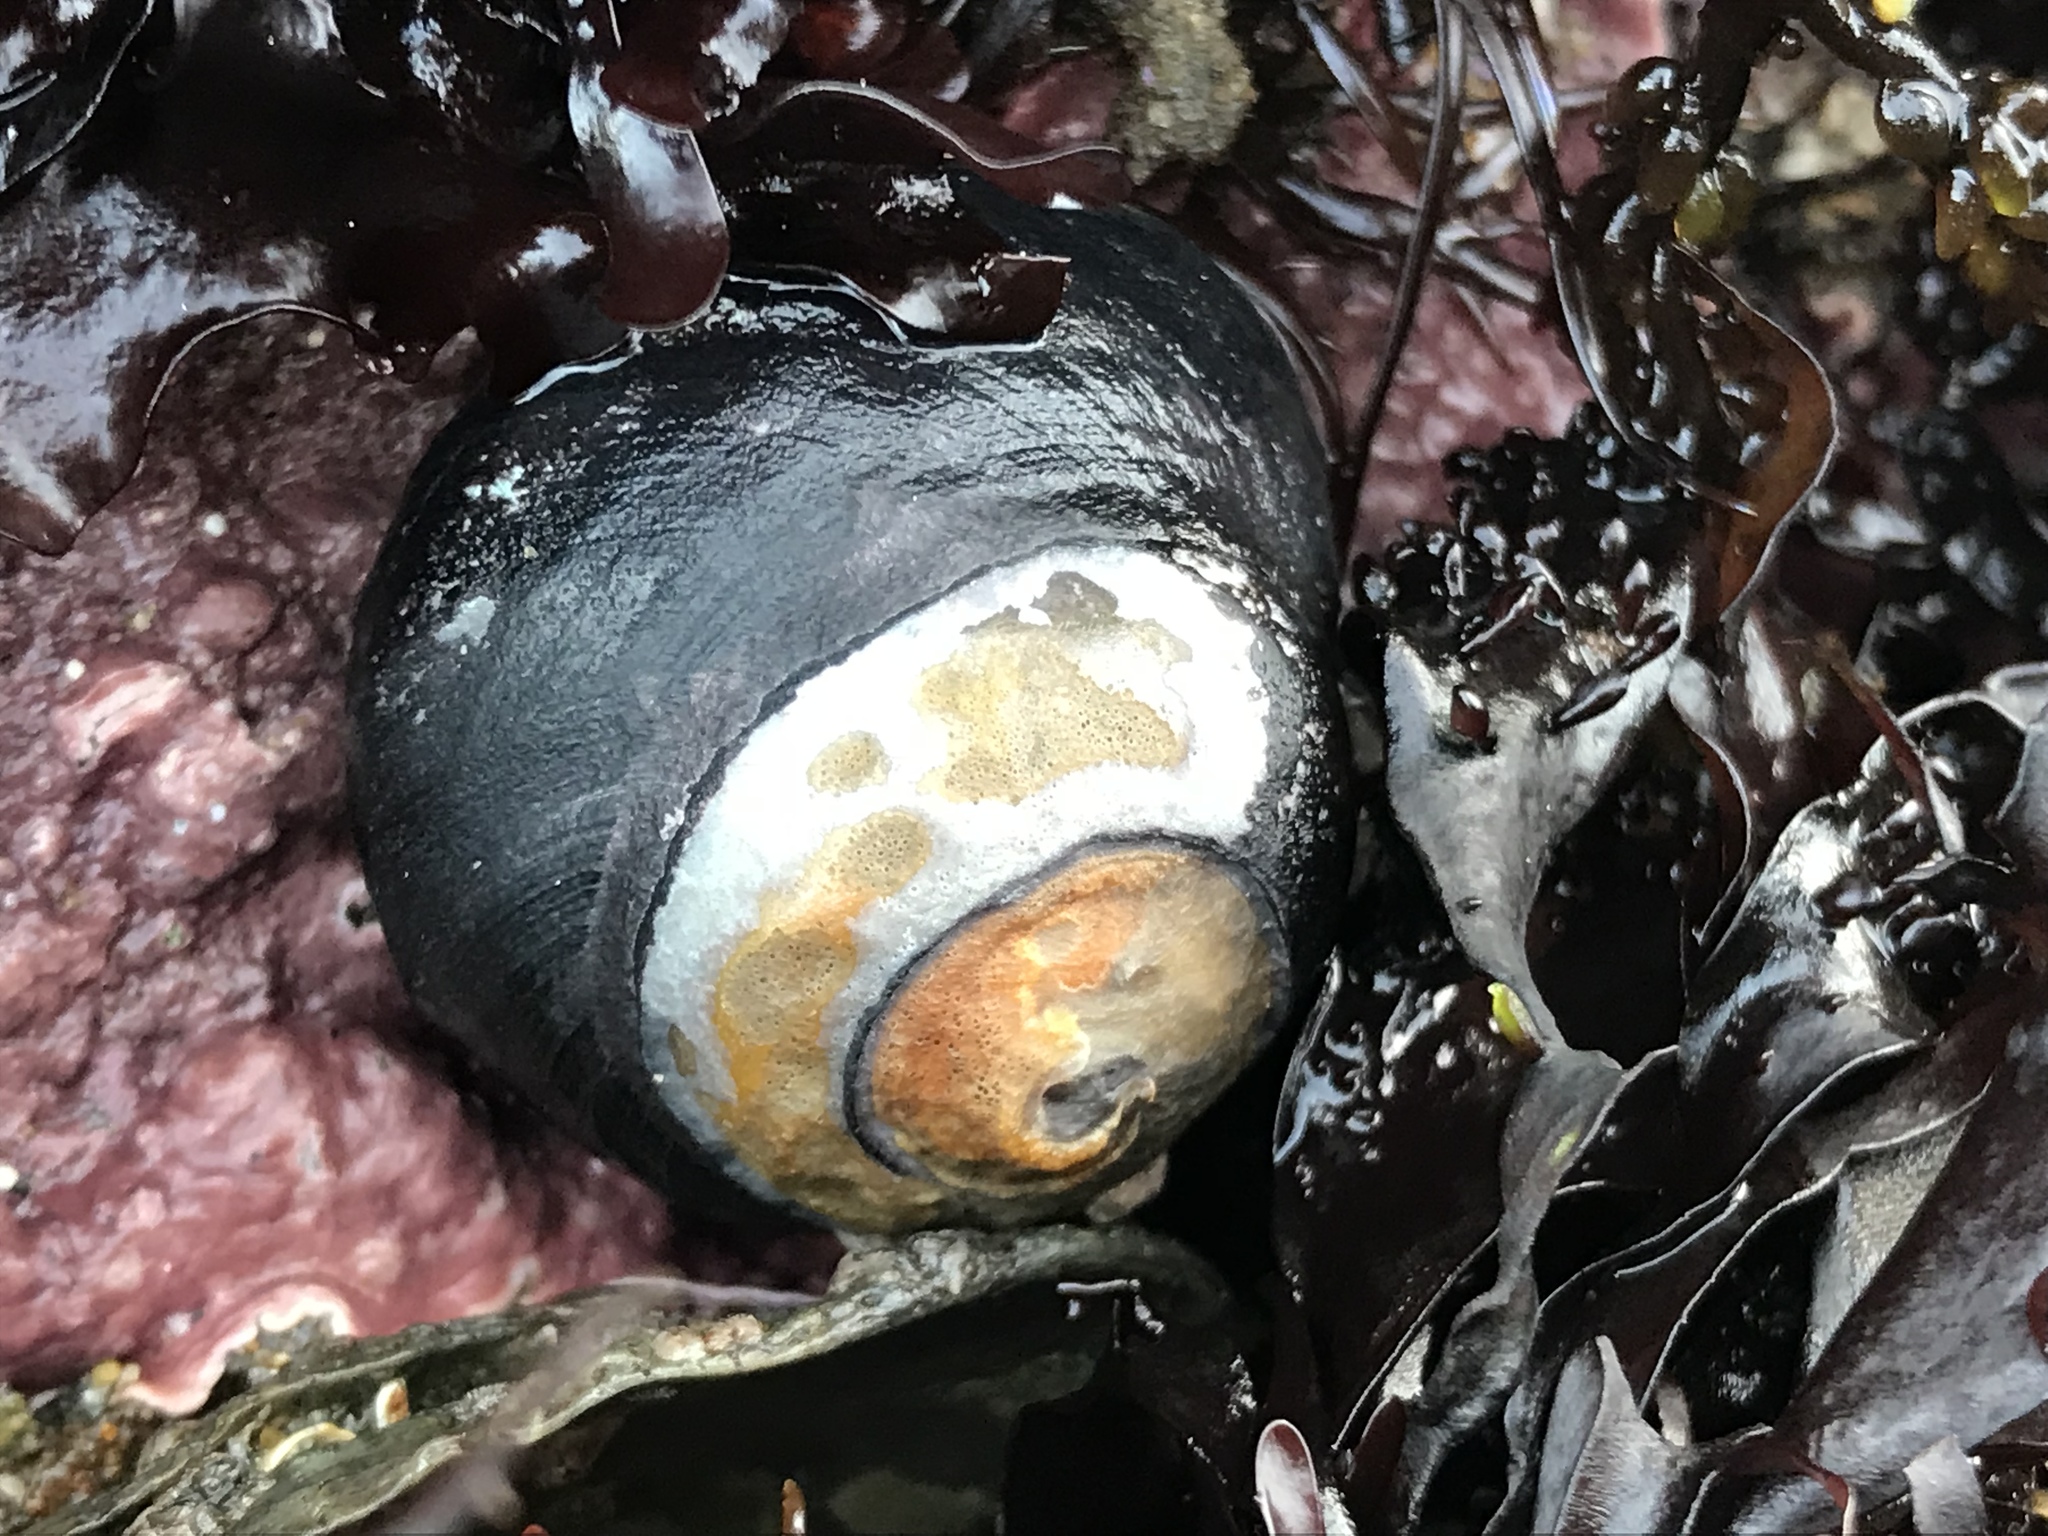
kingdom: Animalia
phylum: Mollusca
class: Gastropoda
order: Trochida
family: Tegulidae
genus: Tegula
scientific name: Tegula funebralis
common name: Black tegula
